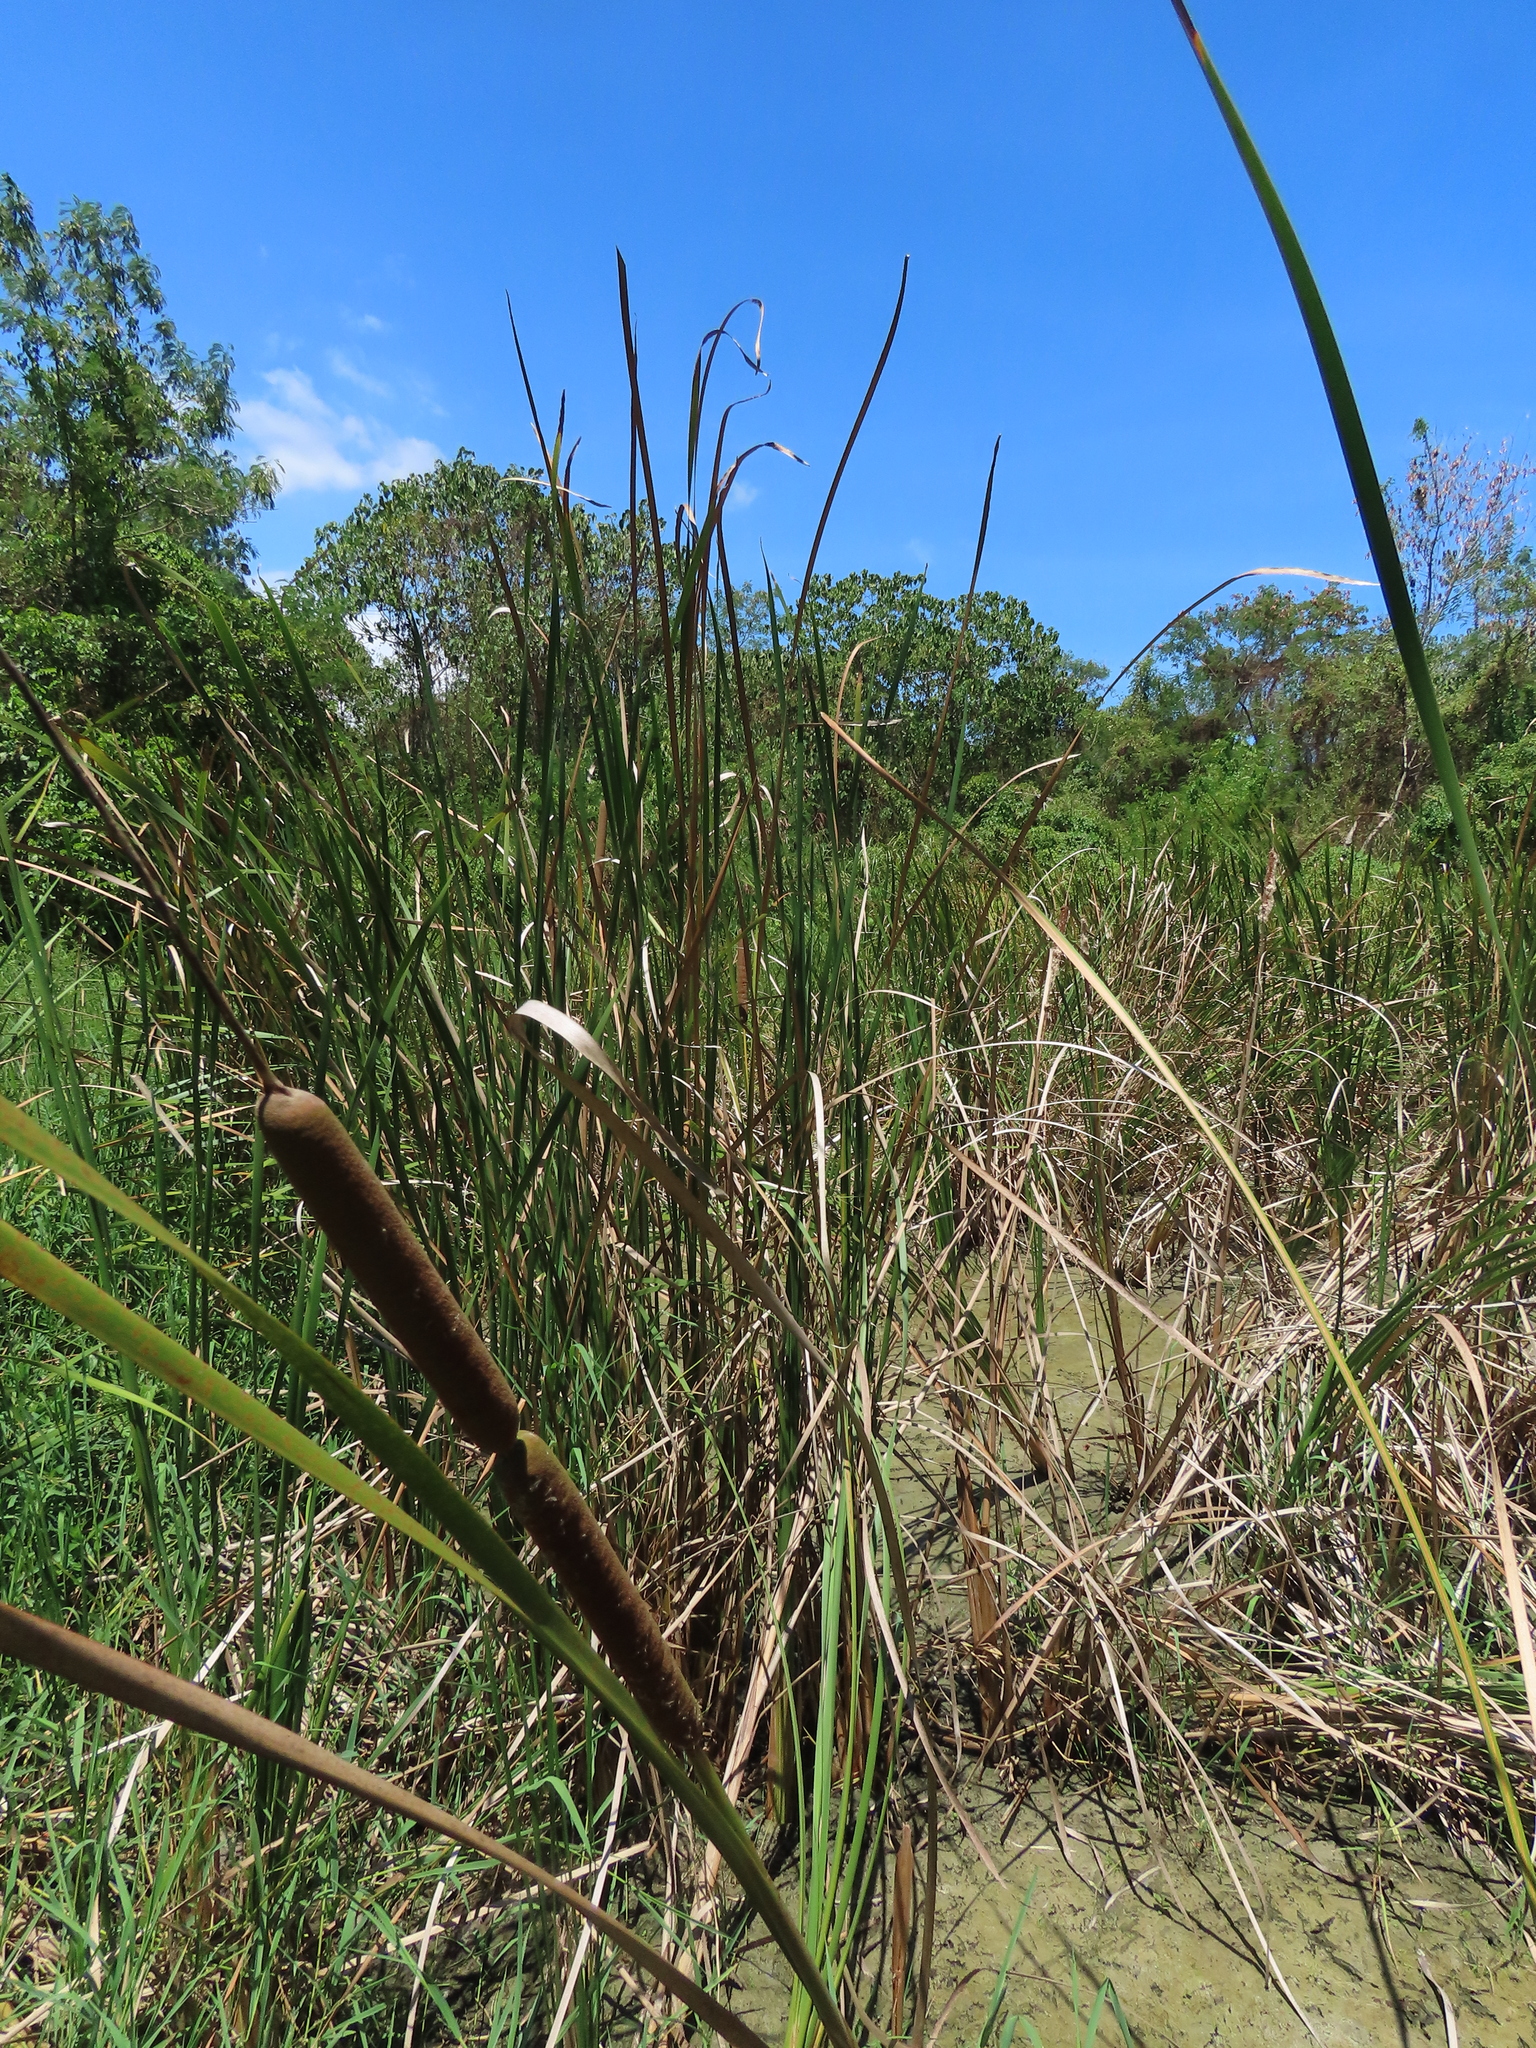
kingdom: Plantae
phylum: Tracheophyta
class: Liliopsida
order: Poales
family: Typhaceae
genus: Typha
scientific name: Typha angustifolia
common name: Lesser bulrush
